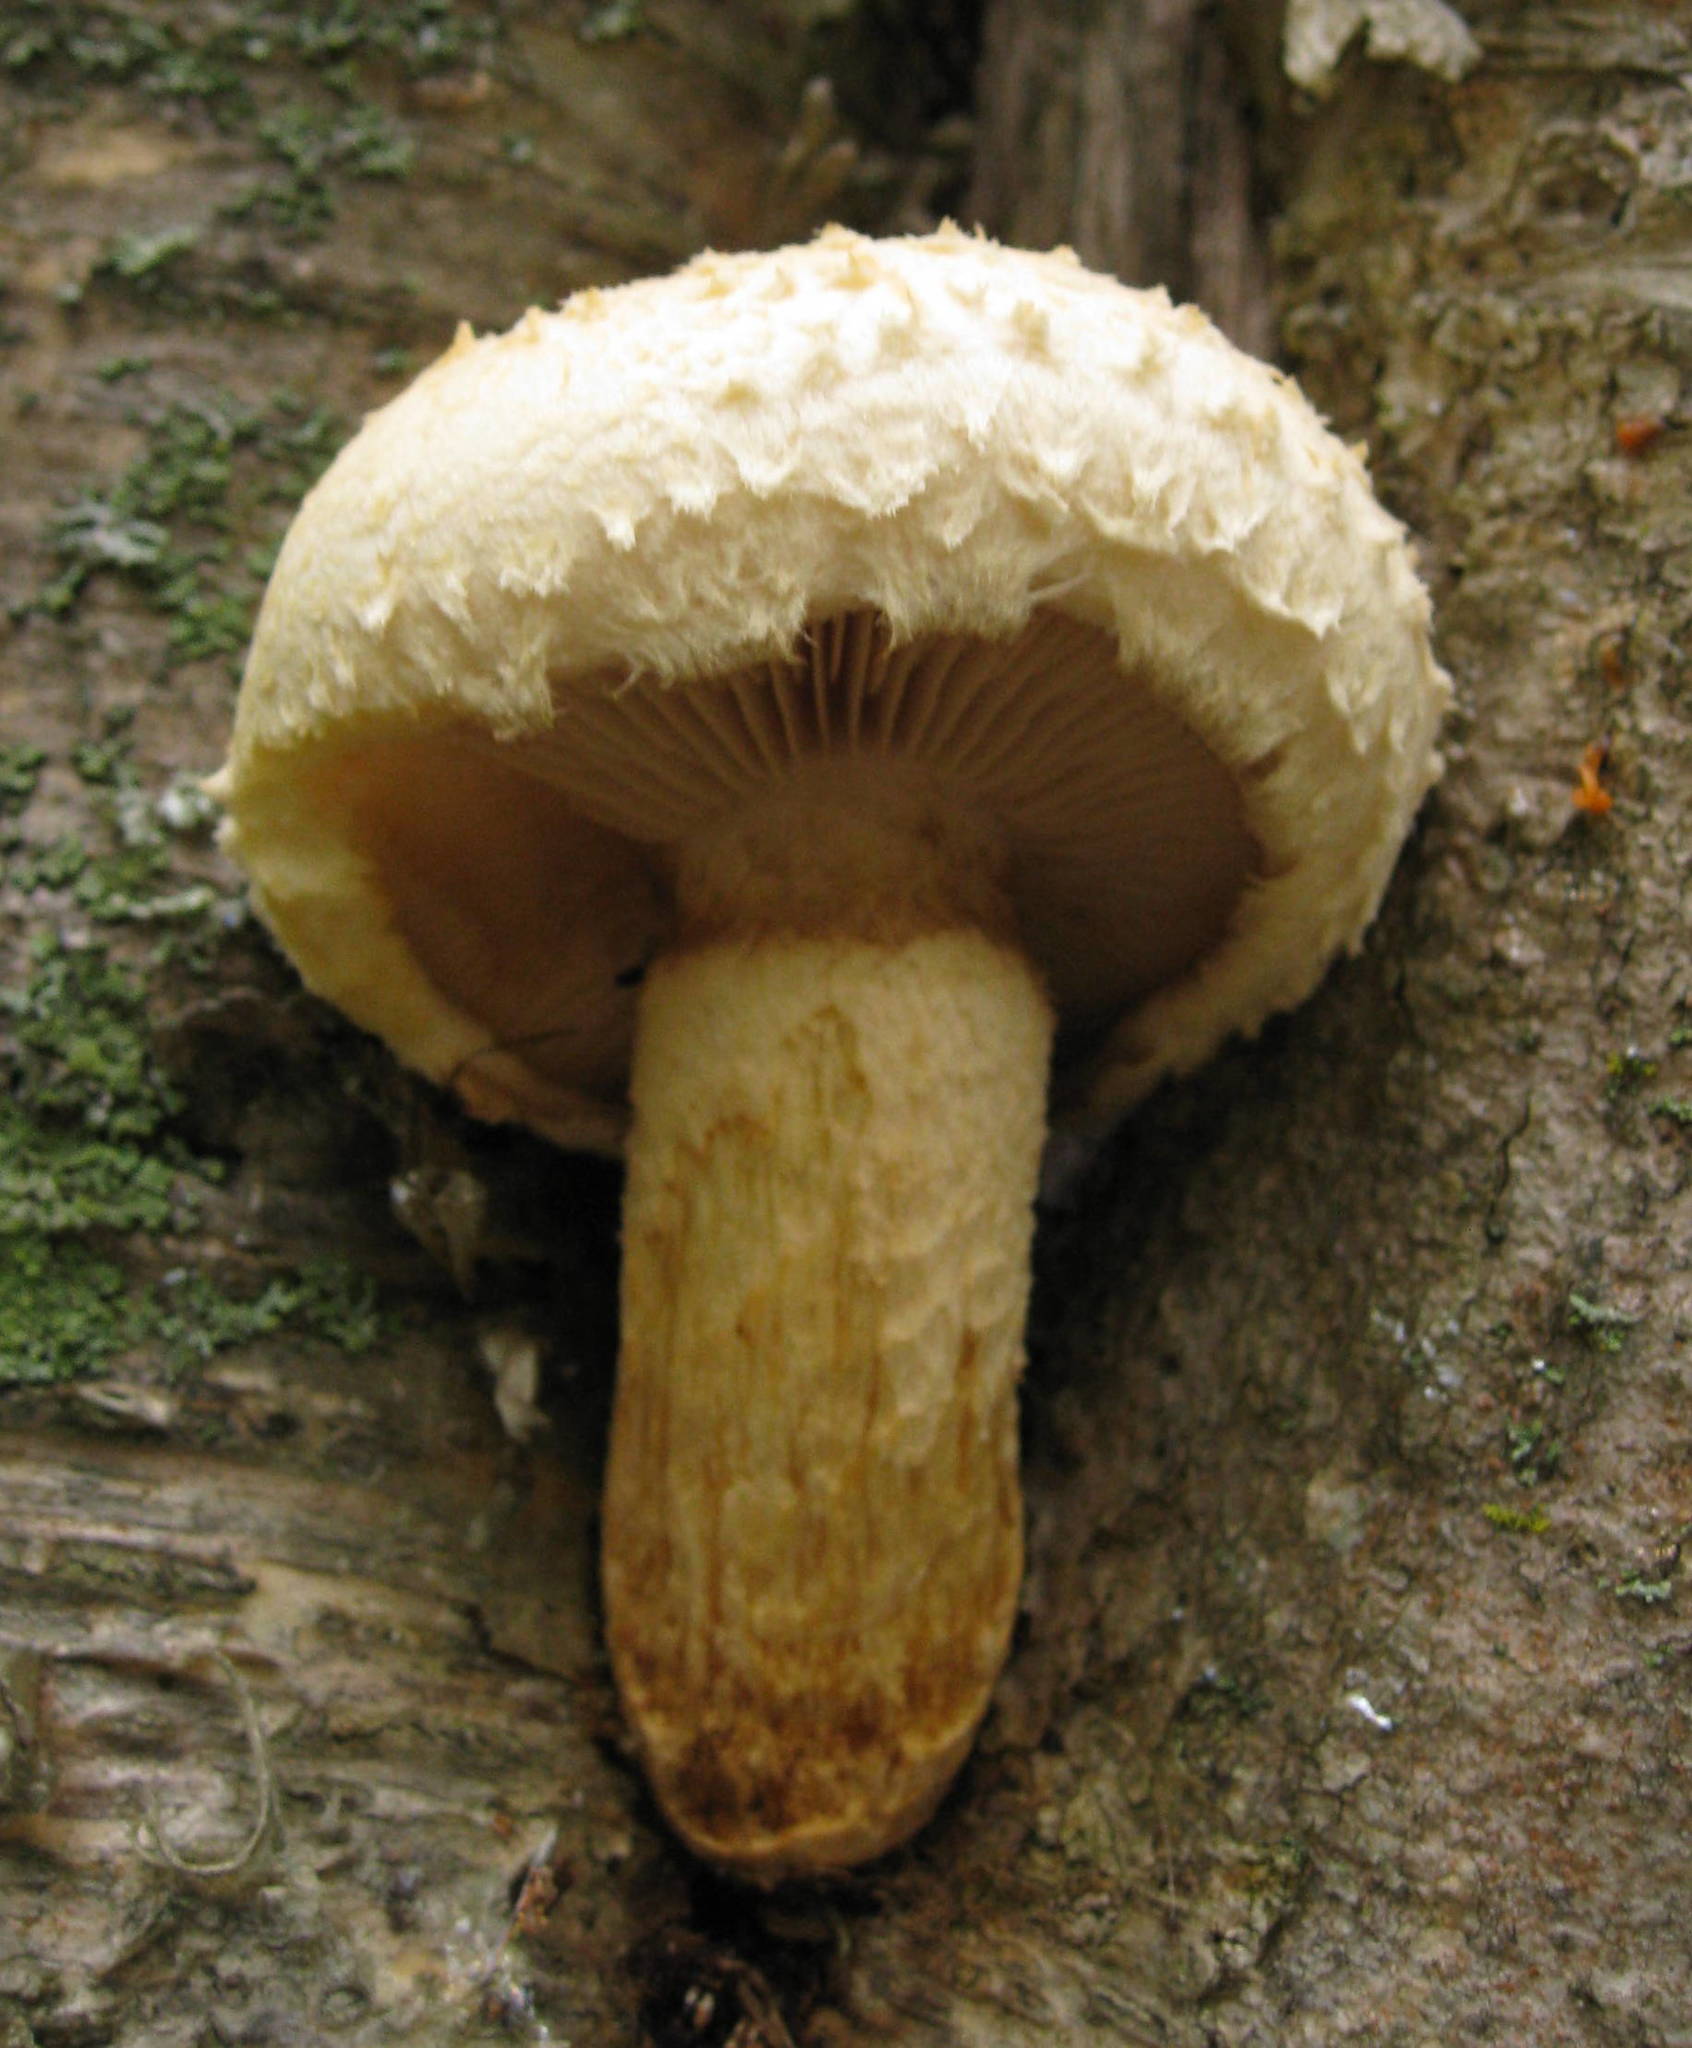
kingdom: Fungi
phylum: Basidiomycota
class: Agaricomycetes
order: Agaricales
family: Strophariaceae
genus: Pholiota
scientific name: Pholiota populnea
